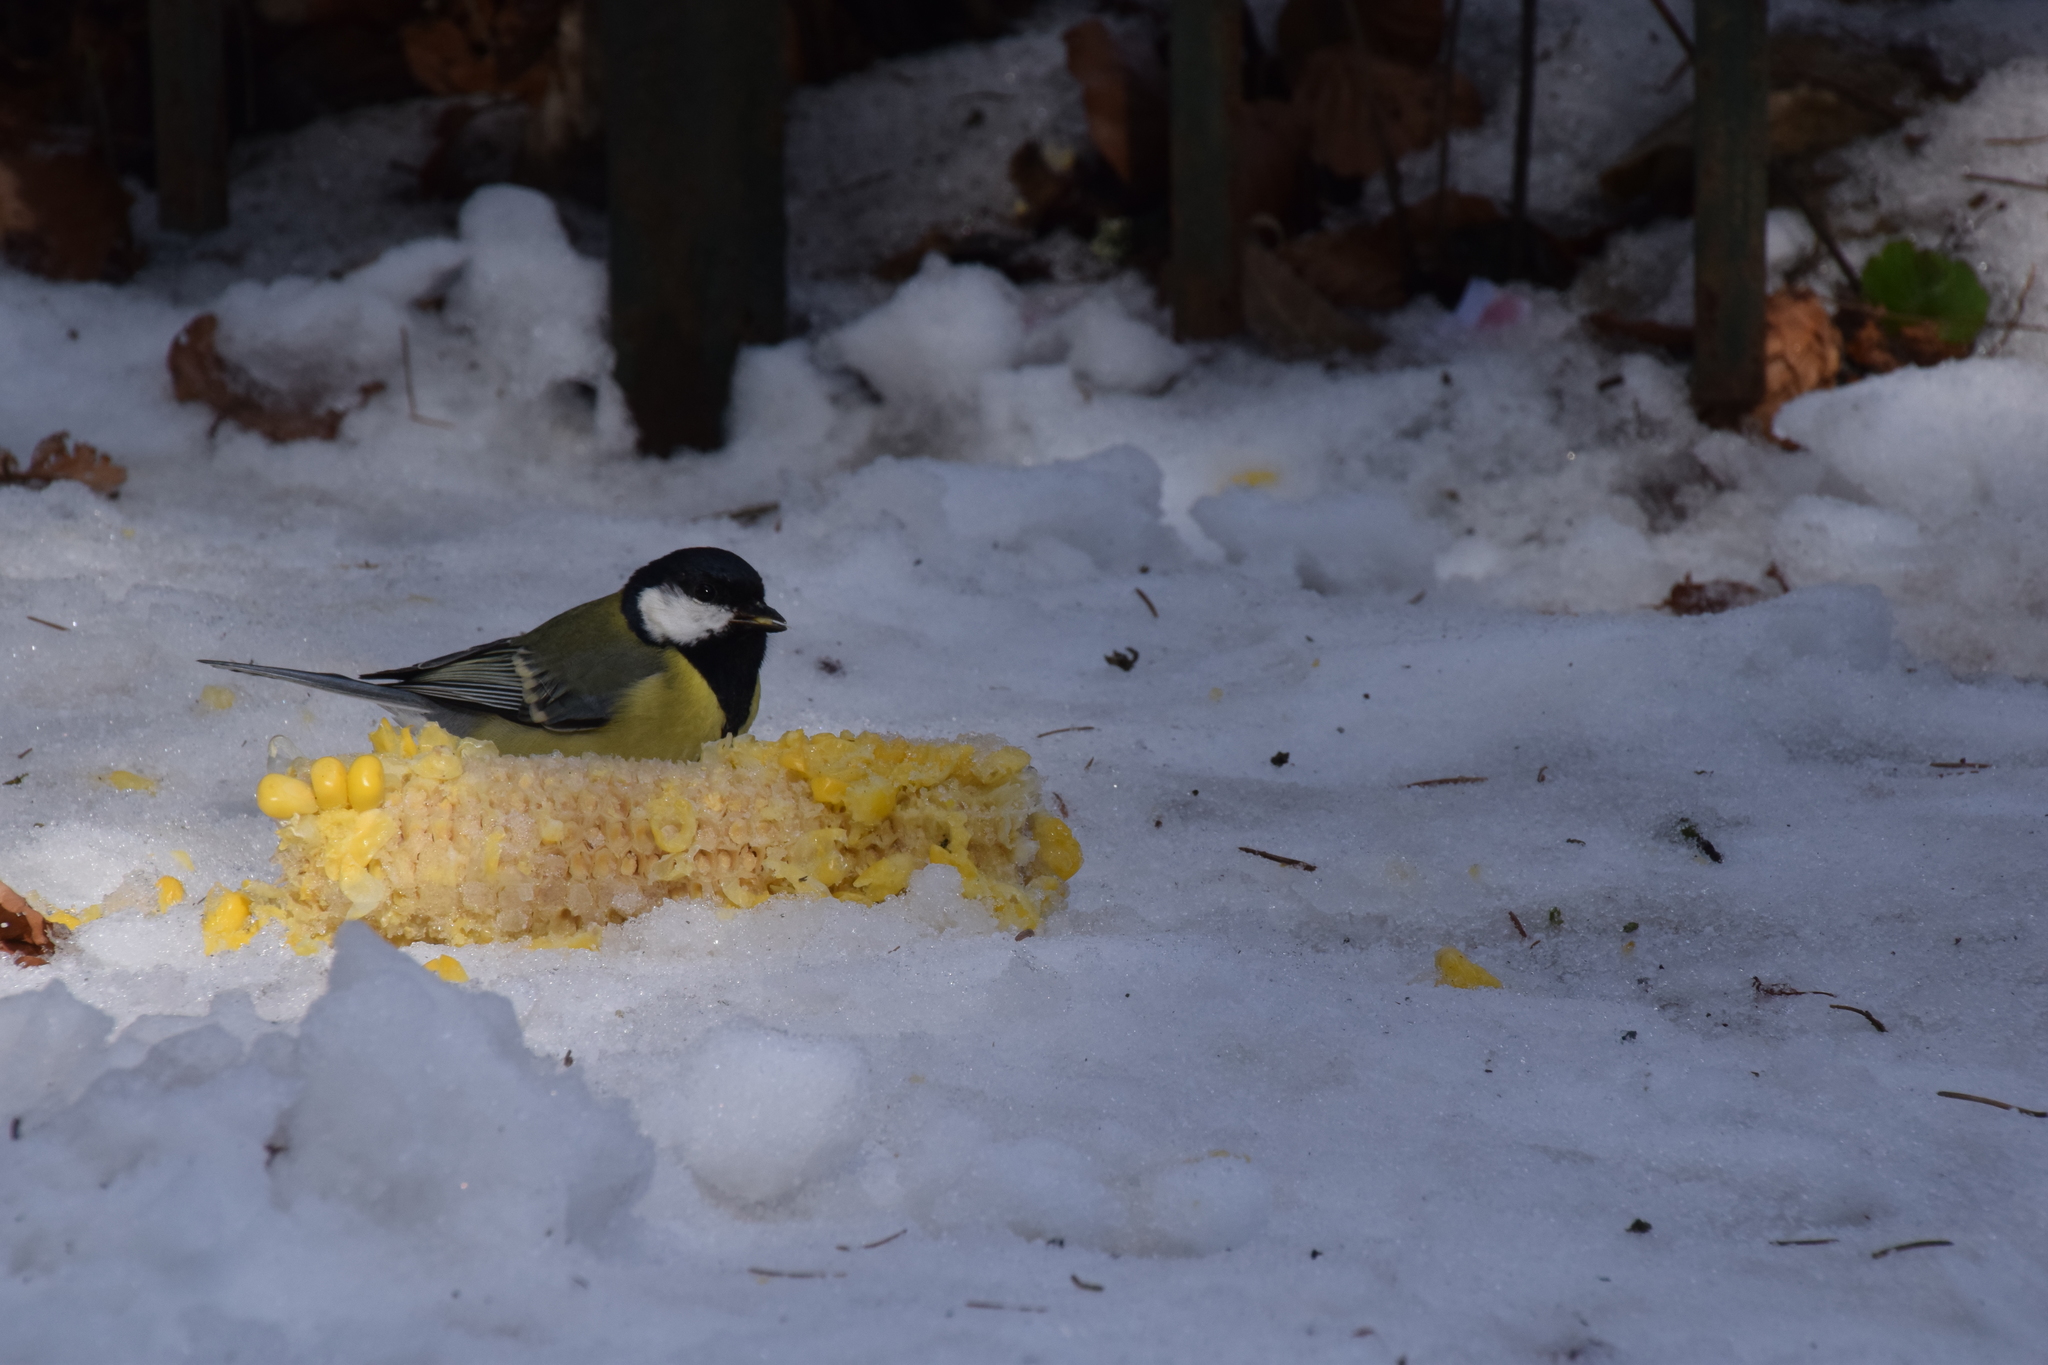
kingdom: Animalia
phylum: Chordata
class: Aves
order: Passeriformes
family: Paridae
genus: Parus
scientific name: Parus major
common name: Great tit
